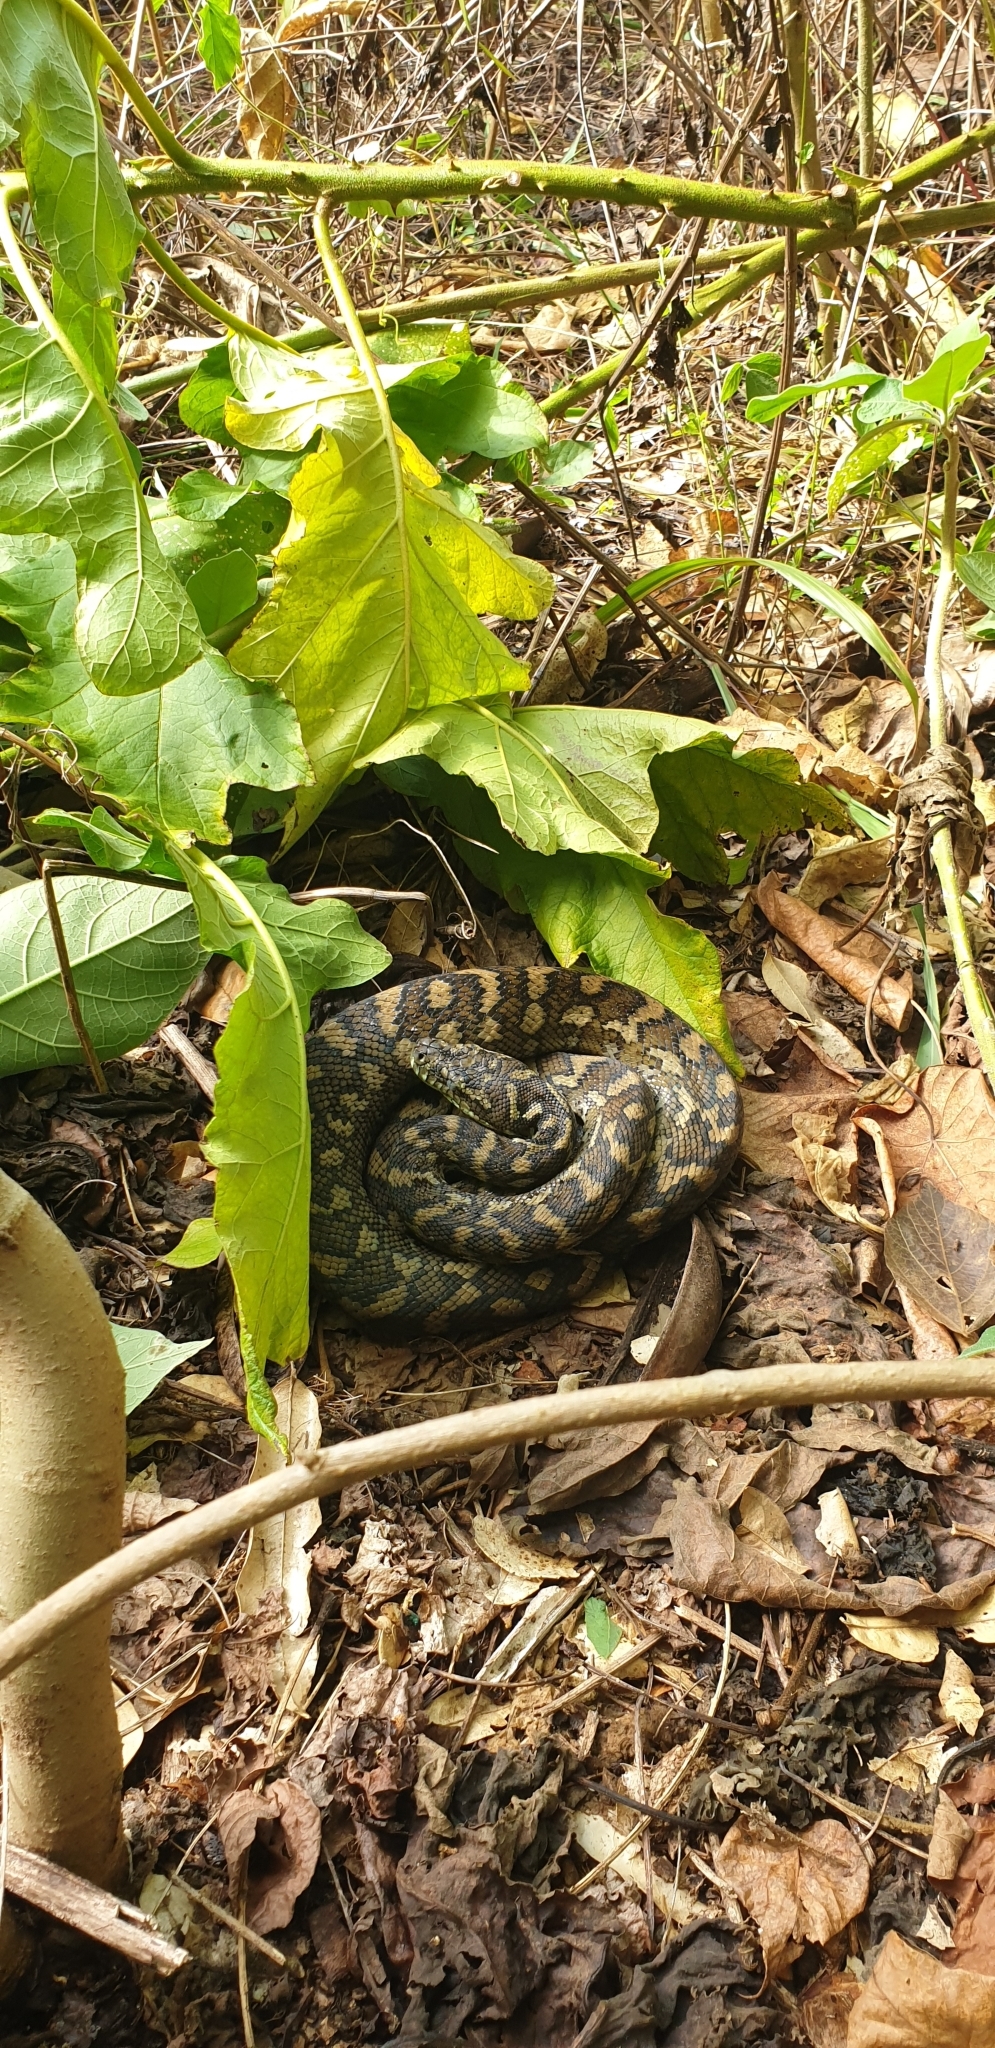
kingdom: Animalia
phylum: Chordata
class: Squamata
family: Pythonidae
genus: Morelia
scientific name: Morelia spilota
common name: Carpet python
